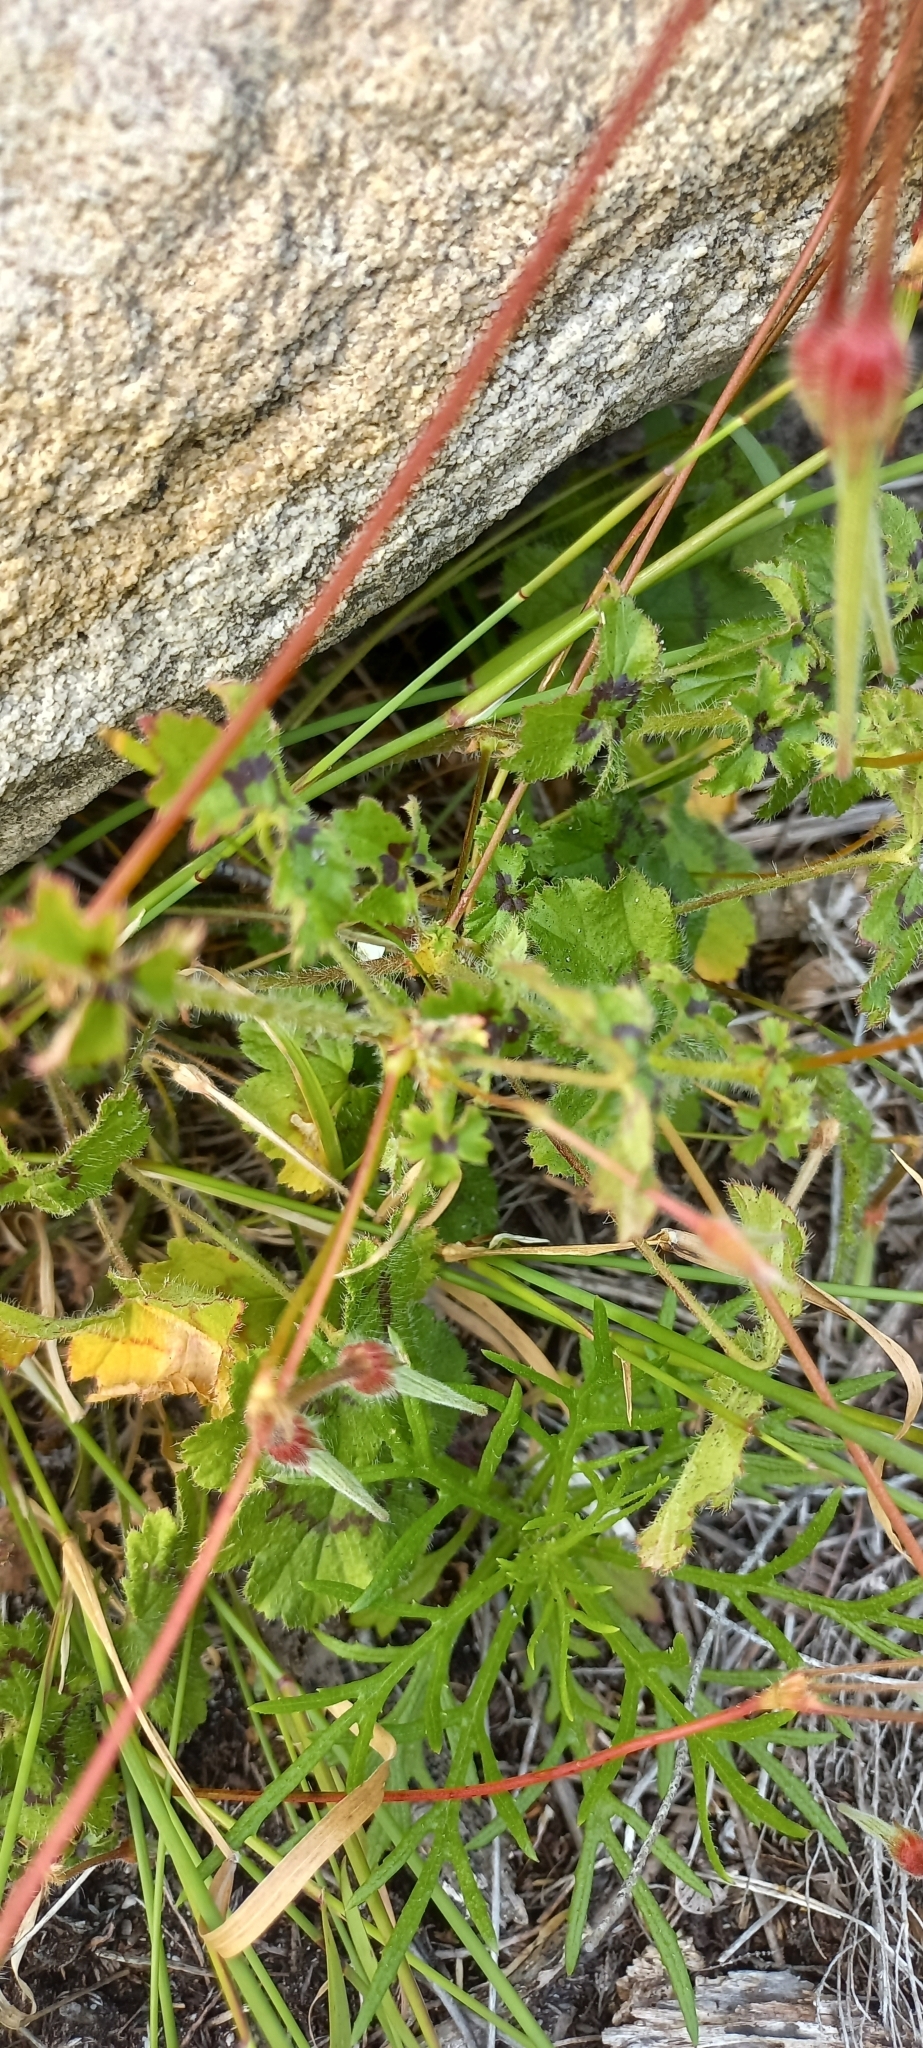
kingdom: Plantae
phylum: Tracheophyta
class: Magnoliopsida
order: Geraniales
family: Geraniaceae
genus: Pelargonium
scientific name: Pelargonium elongatum
